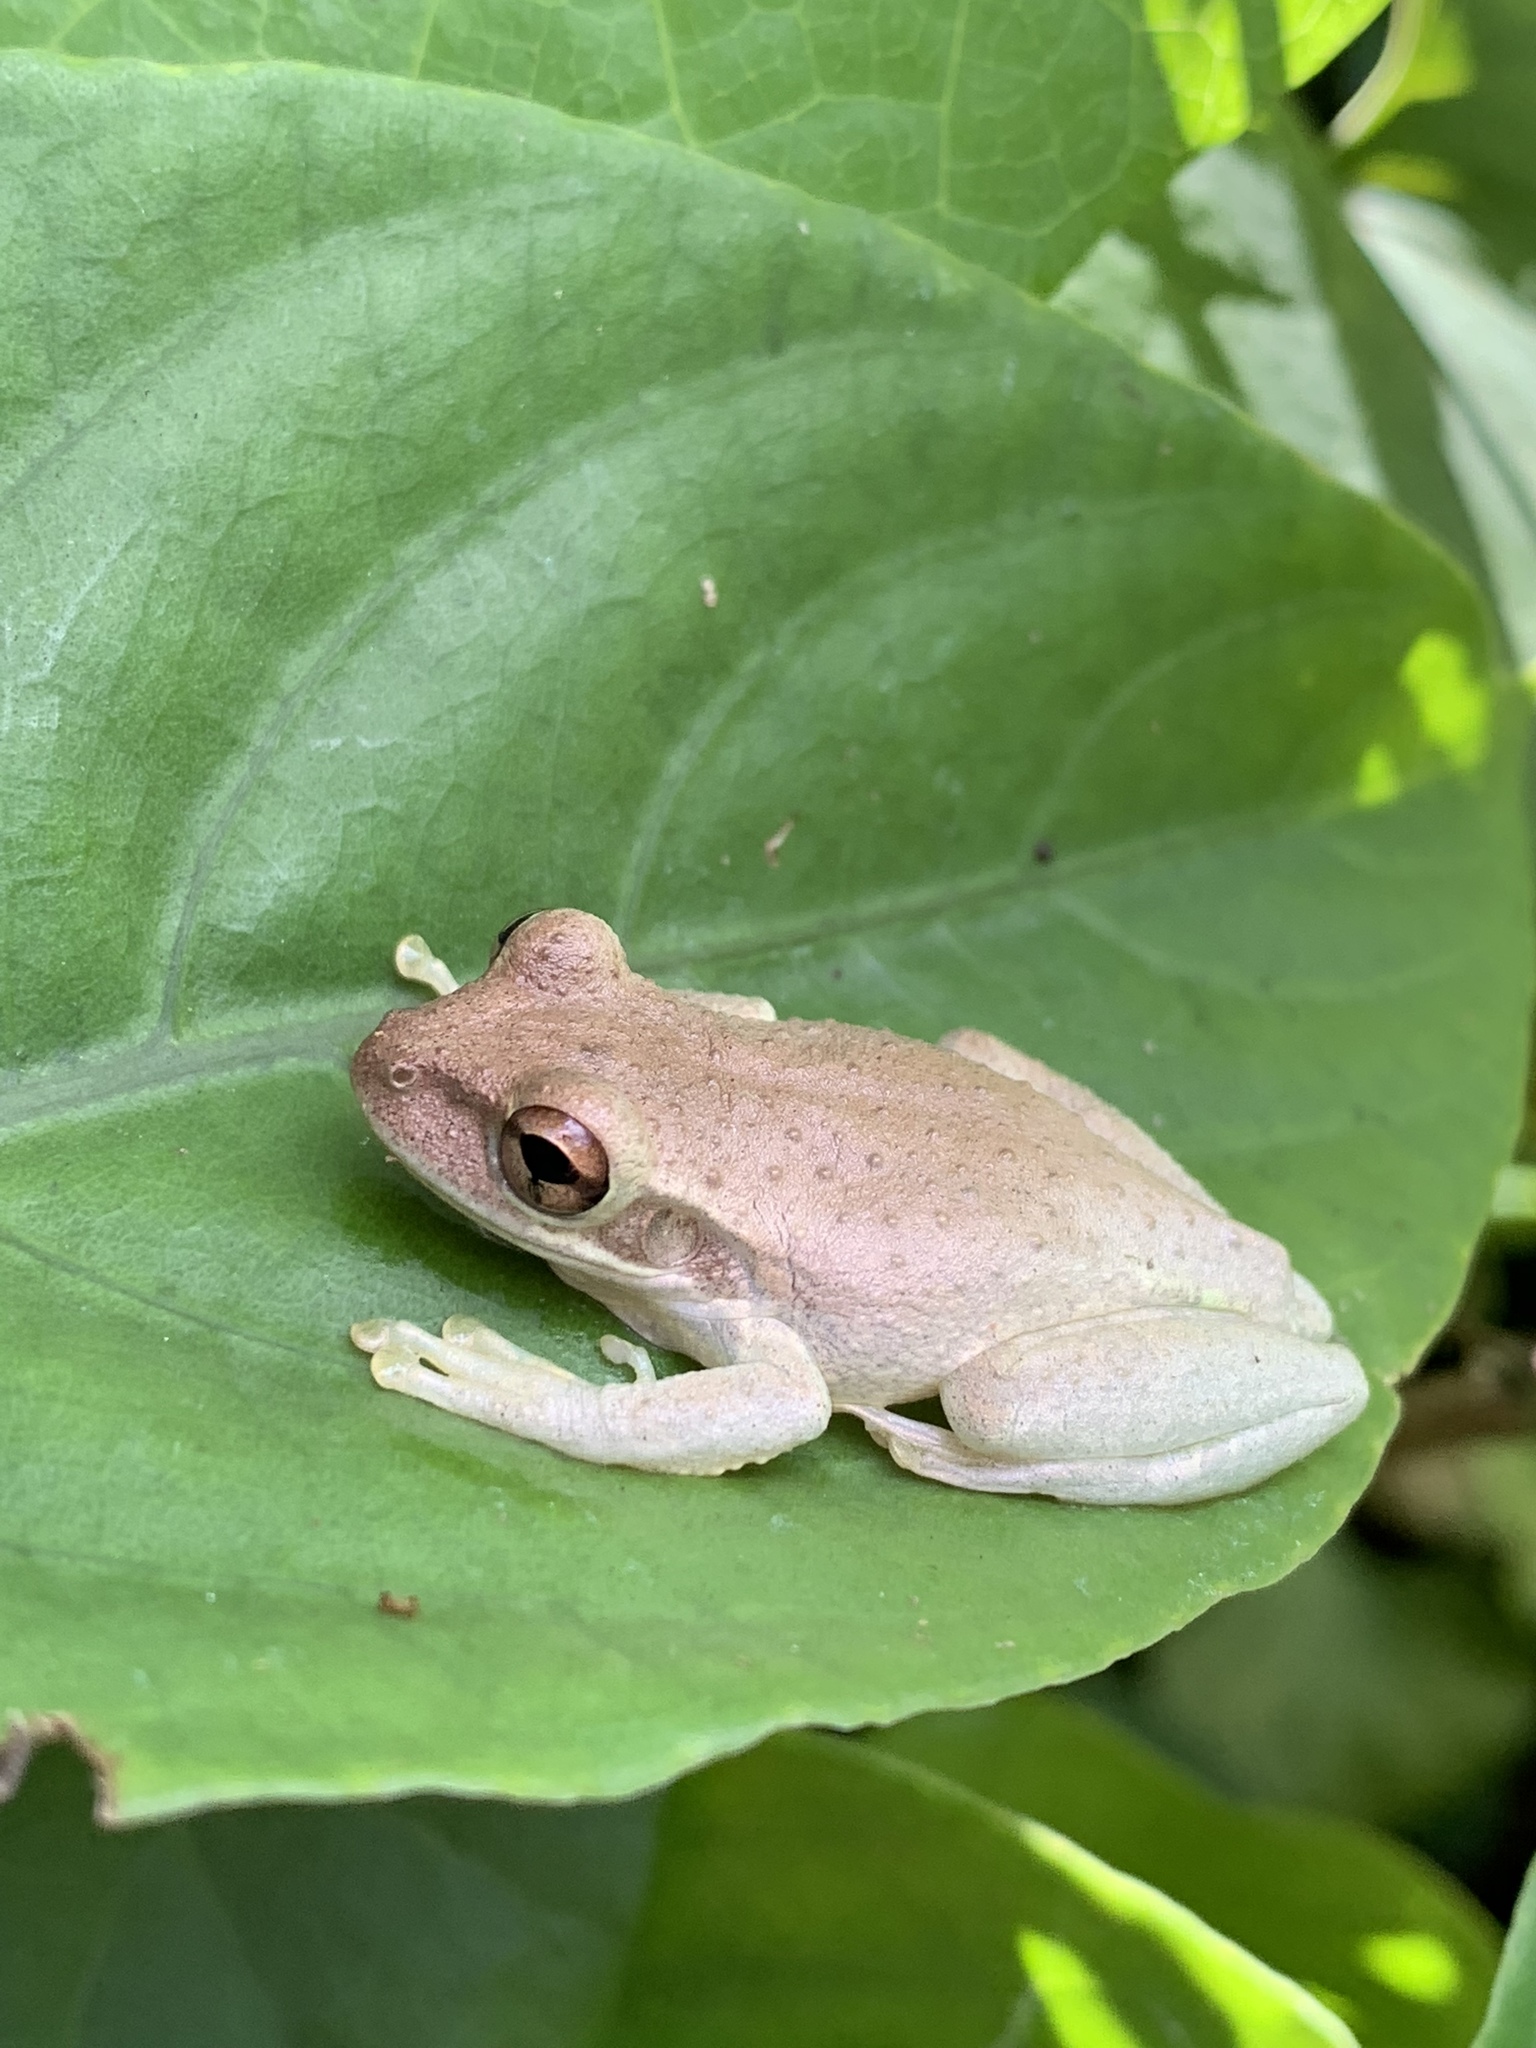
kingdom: Animalia
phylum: Chordata
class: Amphibia
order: Anura
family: Hylidae
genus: Osteopilus
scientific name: Osteopilus septentrionalis
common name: Cuban treefrog
